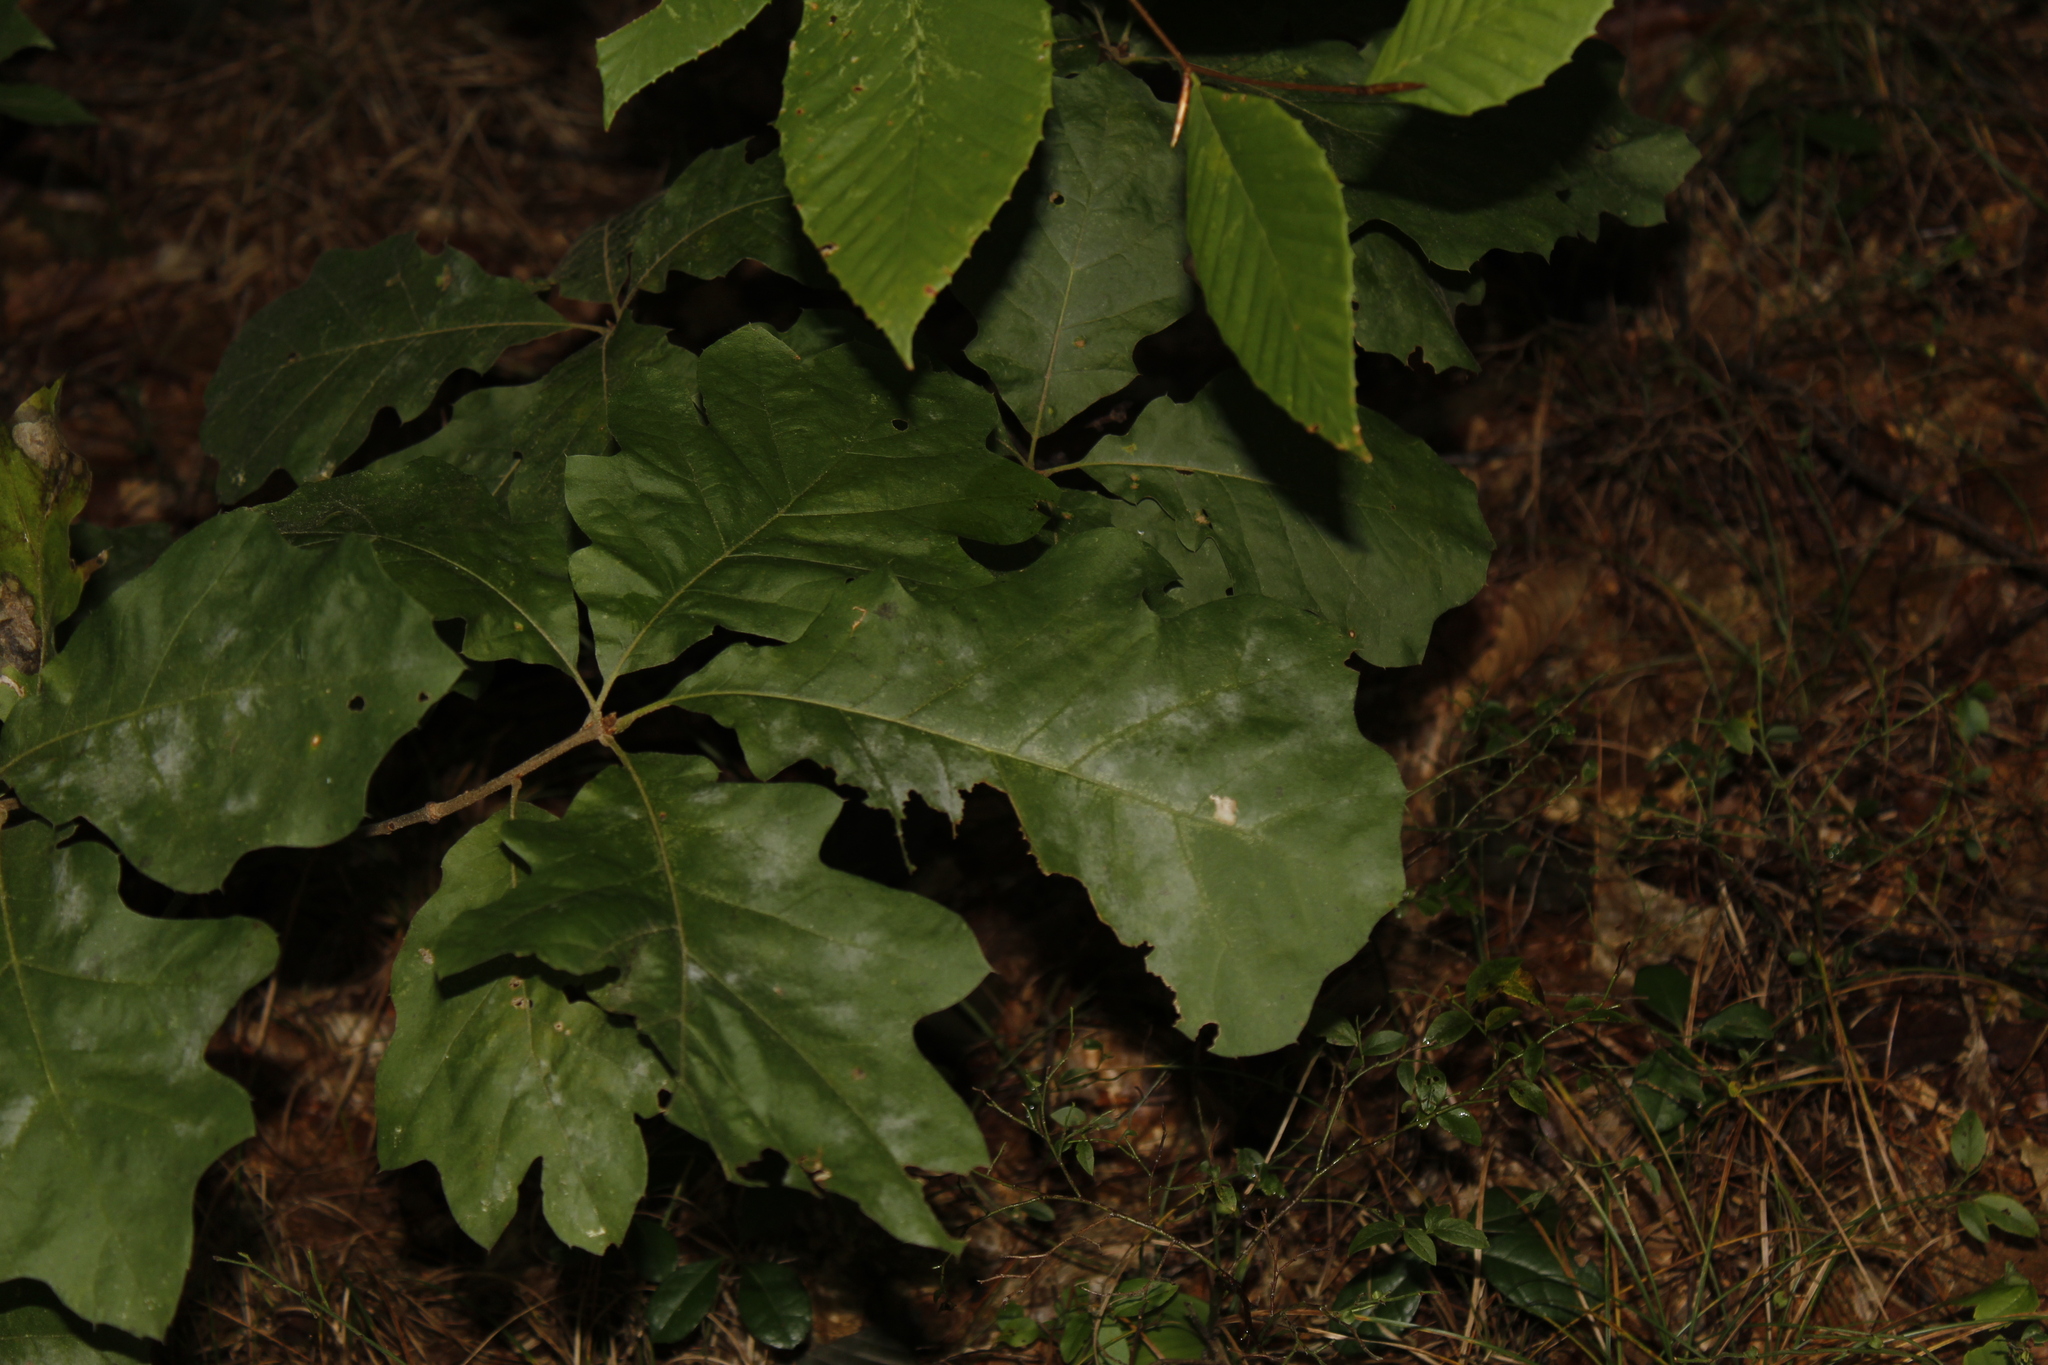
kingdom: Plantae
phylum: Tracheophyta
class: Magnoliopsida
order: Fagales
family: Fagaceae
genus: Quercus
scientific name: Quercus velutina
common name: Black oak
